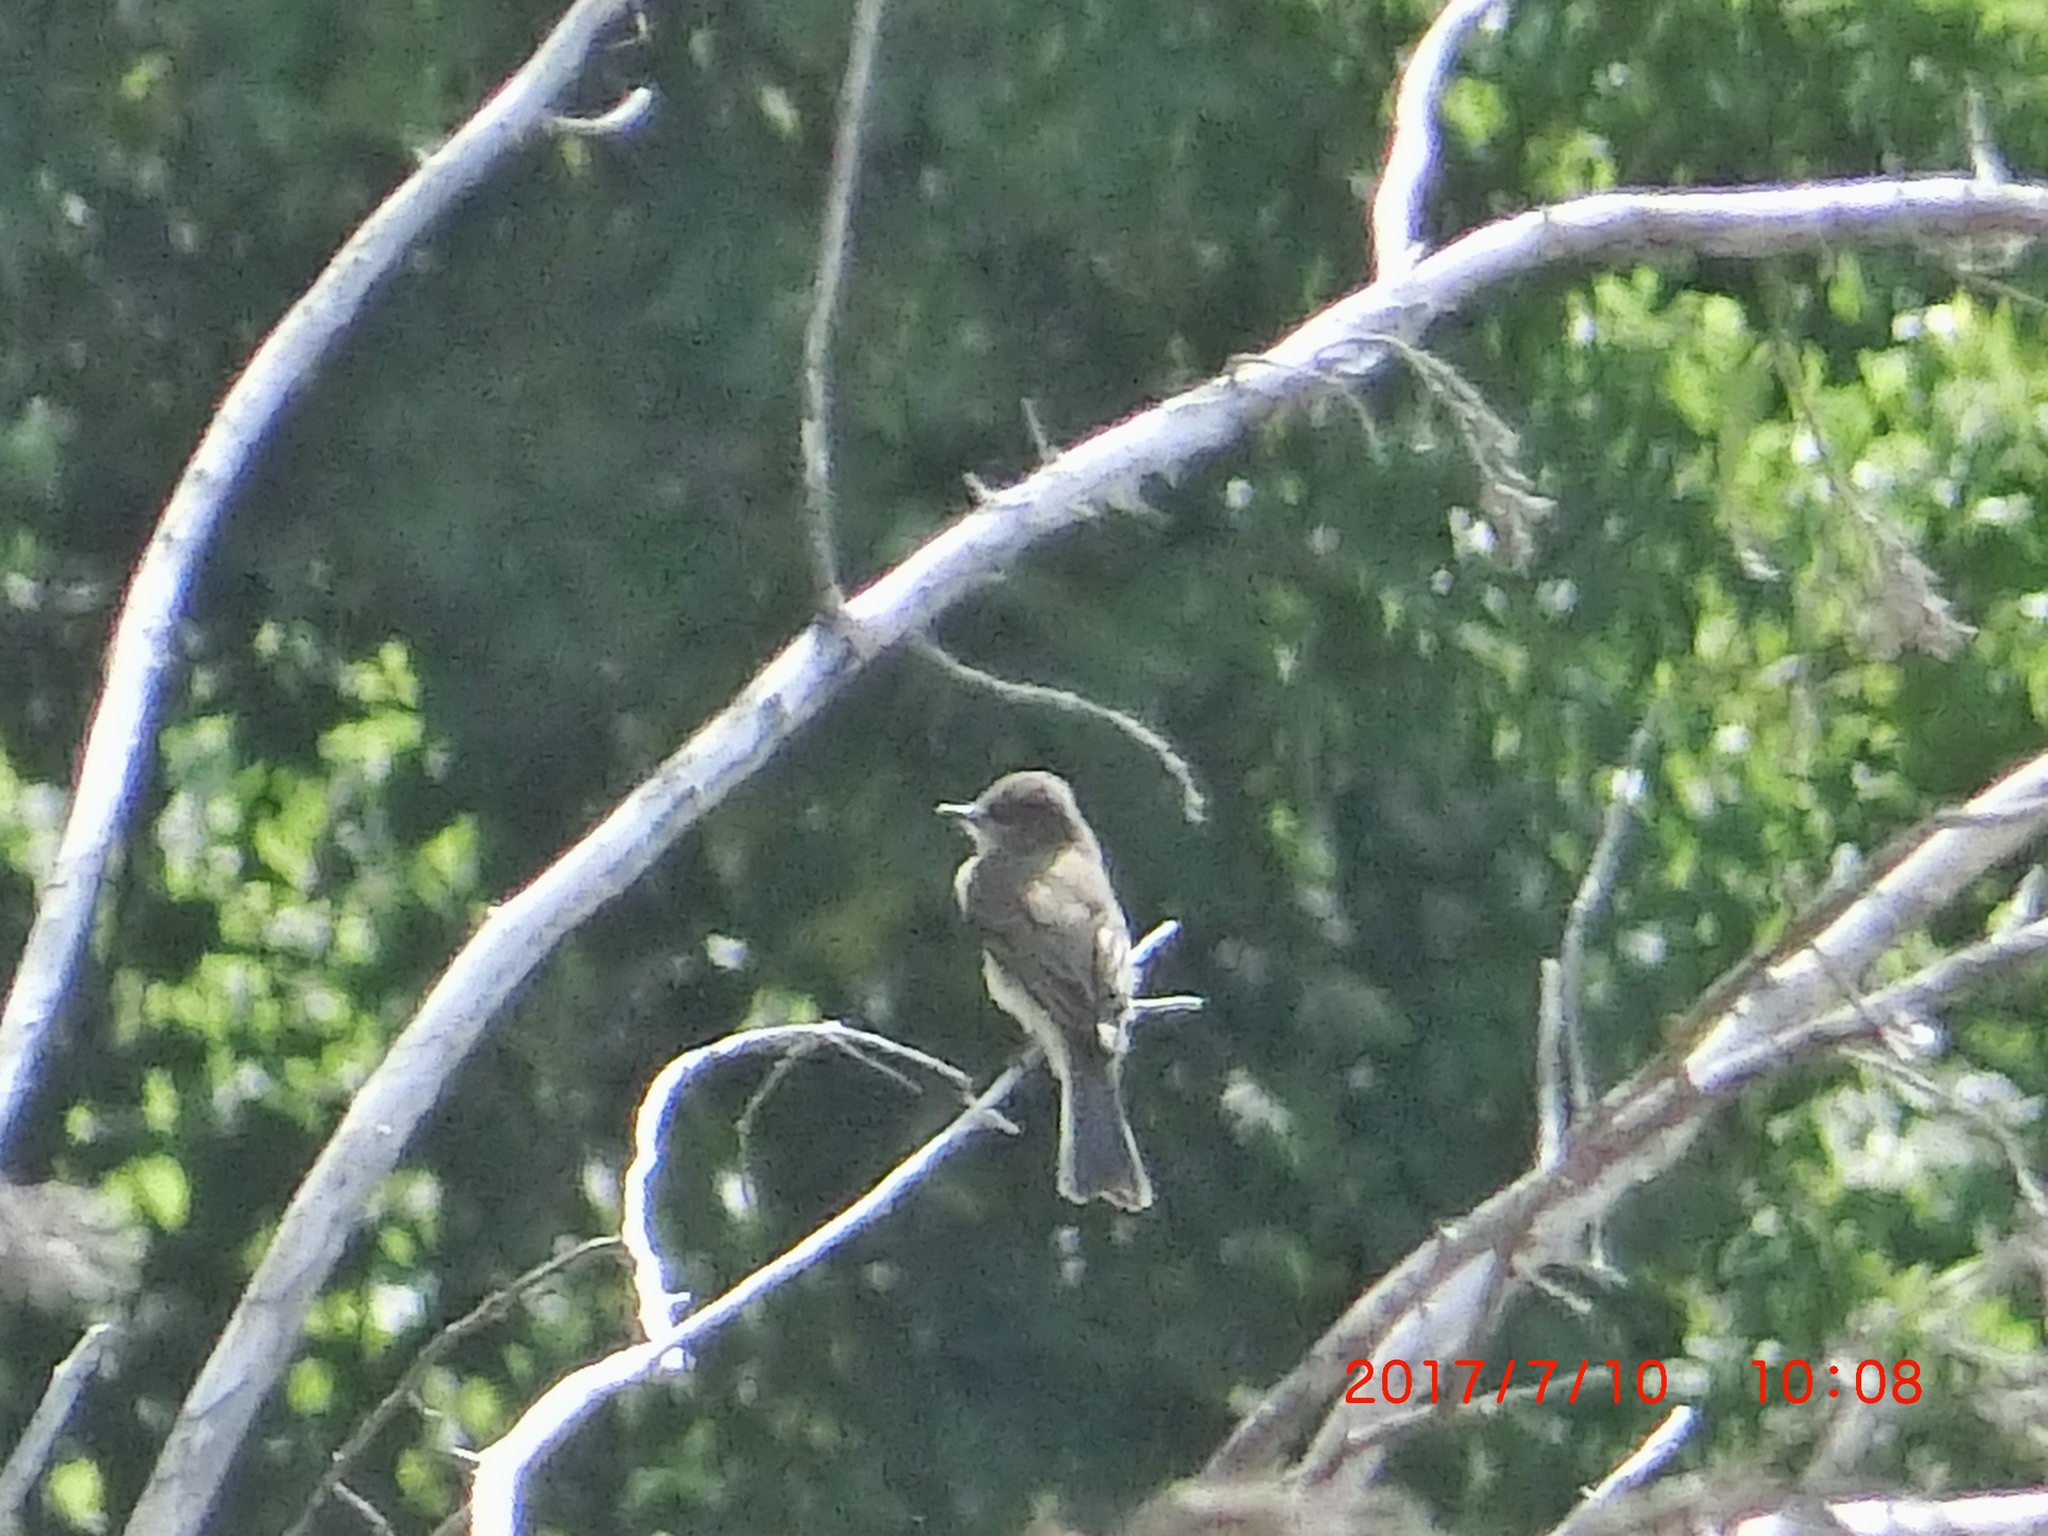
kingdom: Animalia
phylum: Chordata
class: Aves
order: Passeriformes
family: Tyrannidae
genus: Sayornis
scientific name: Sayornis phoebe
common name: Eastern phoebe
